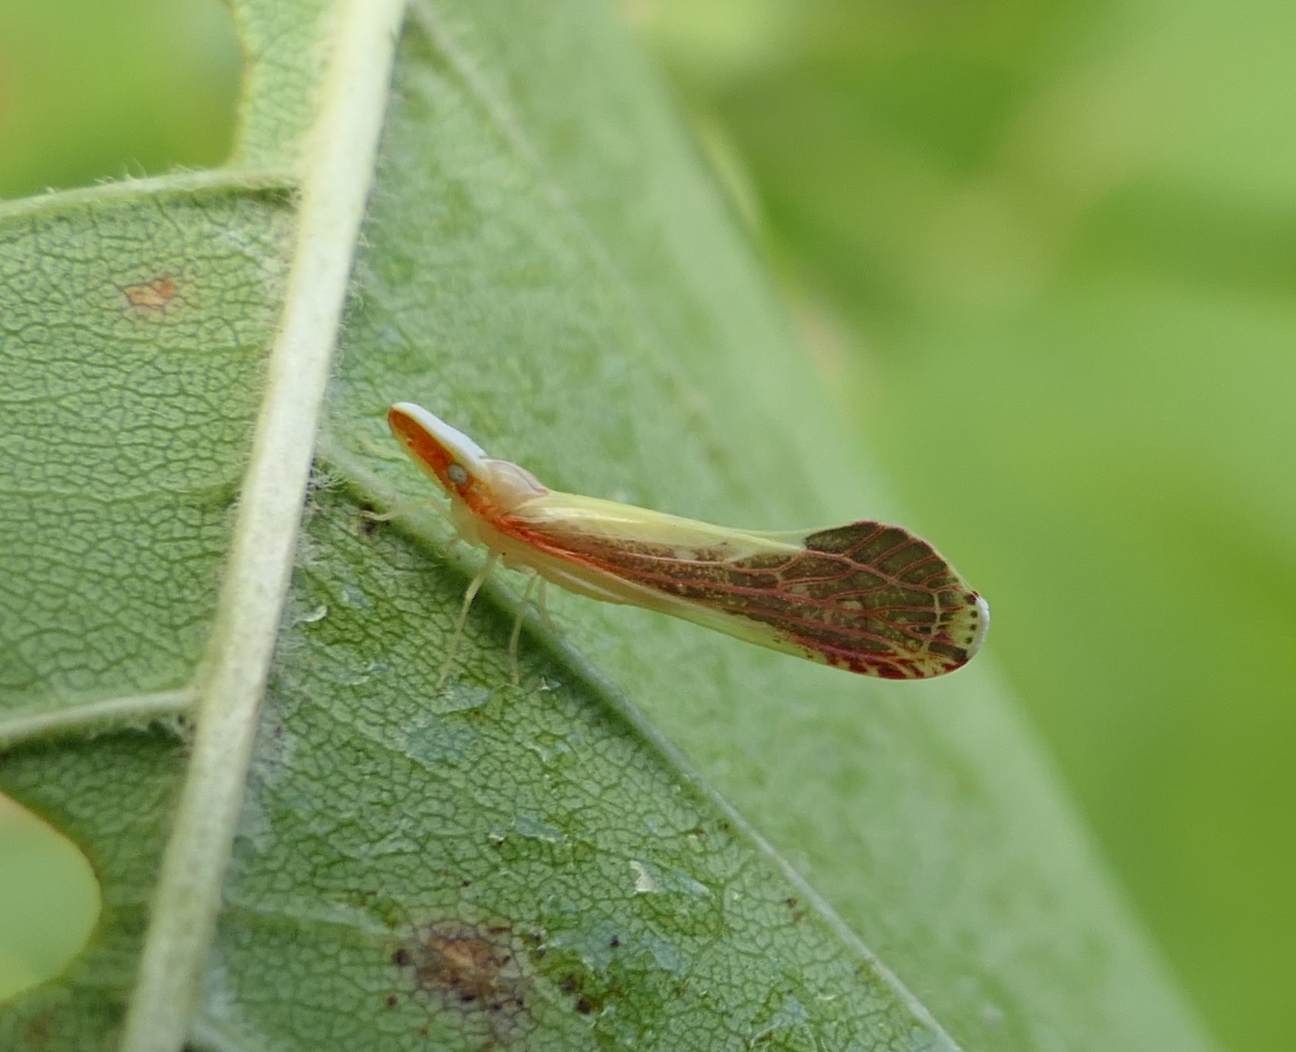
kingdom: Animalia
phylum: Arthropoda
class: Insecta
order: Hemiptera
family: Derbidae
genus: Shellenius
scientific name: Shellenius ballii
